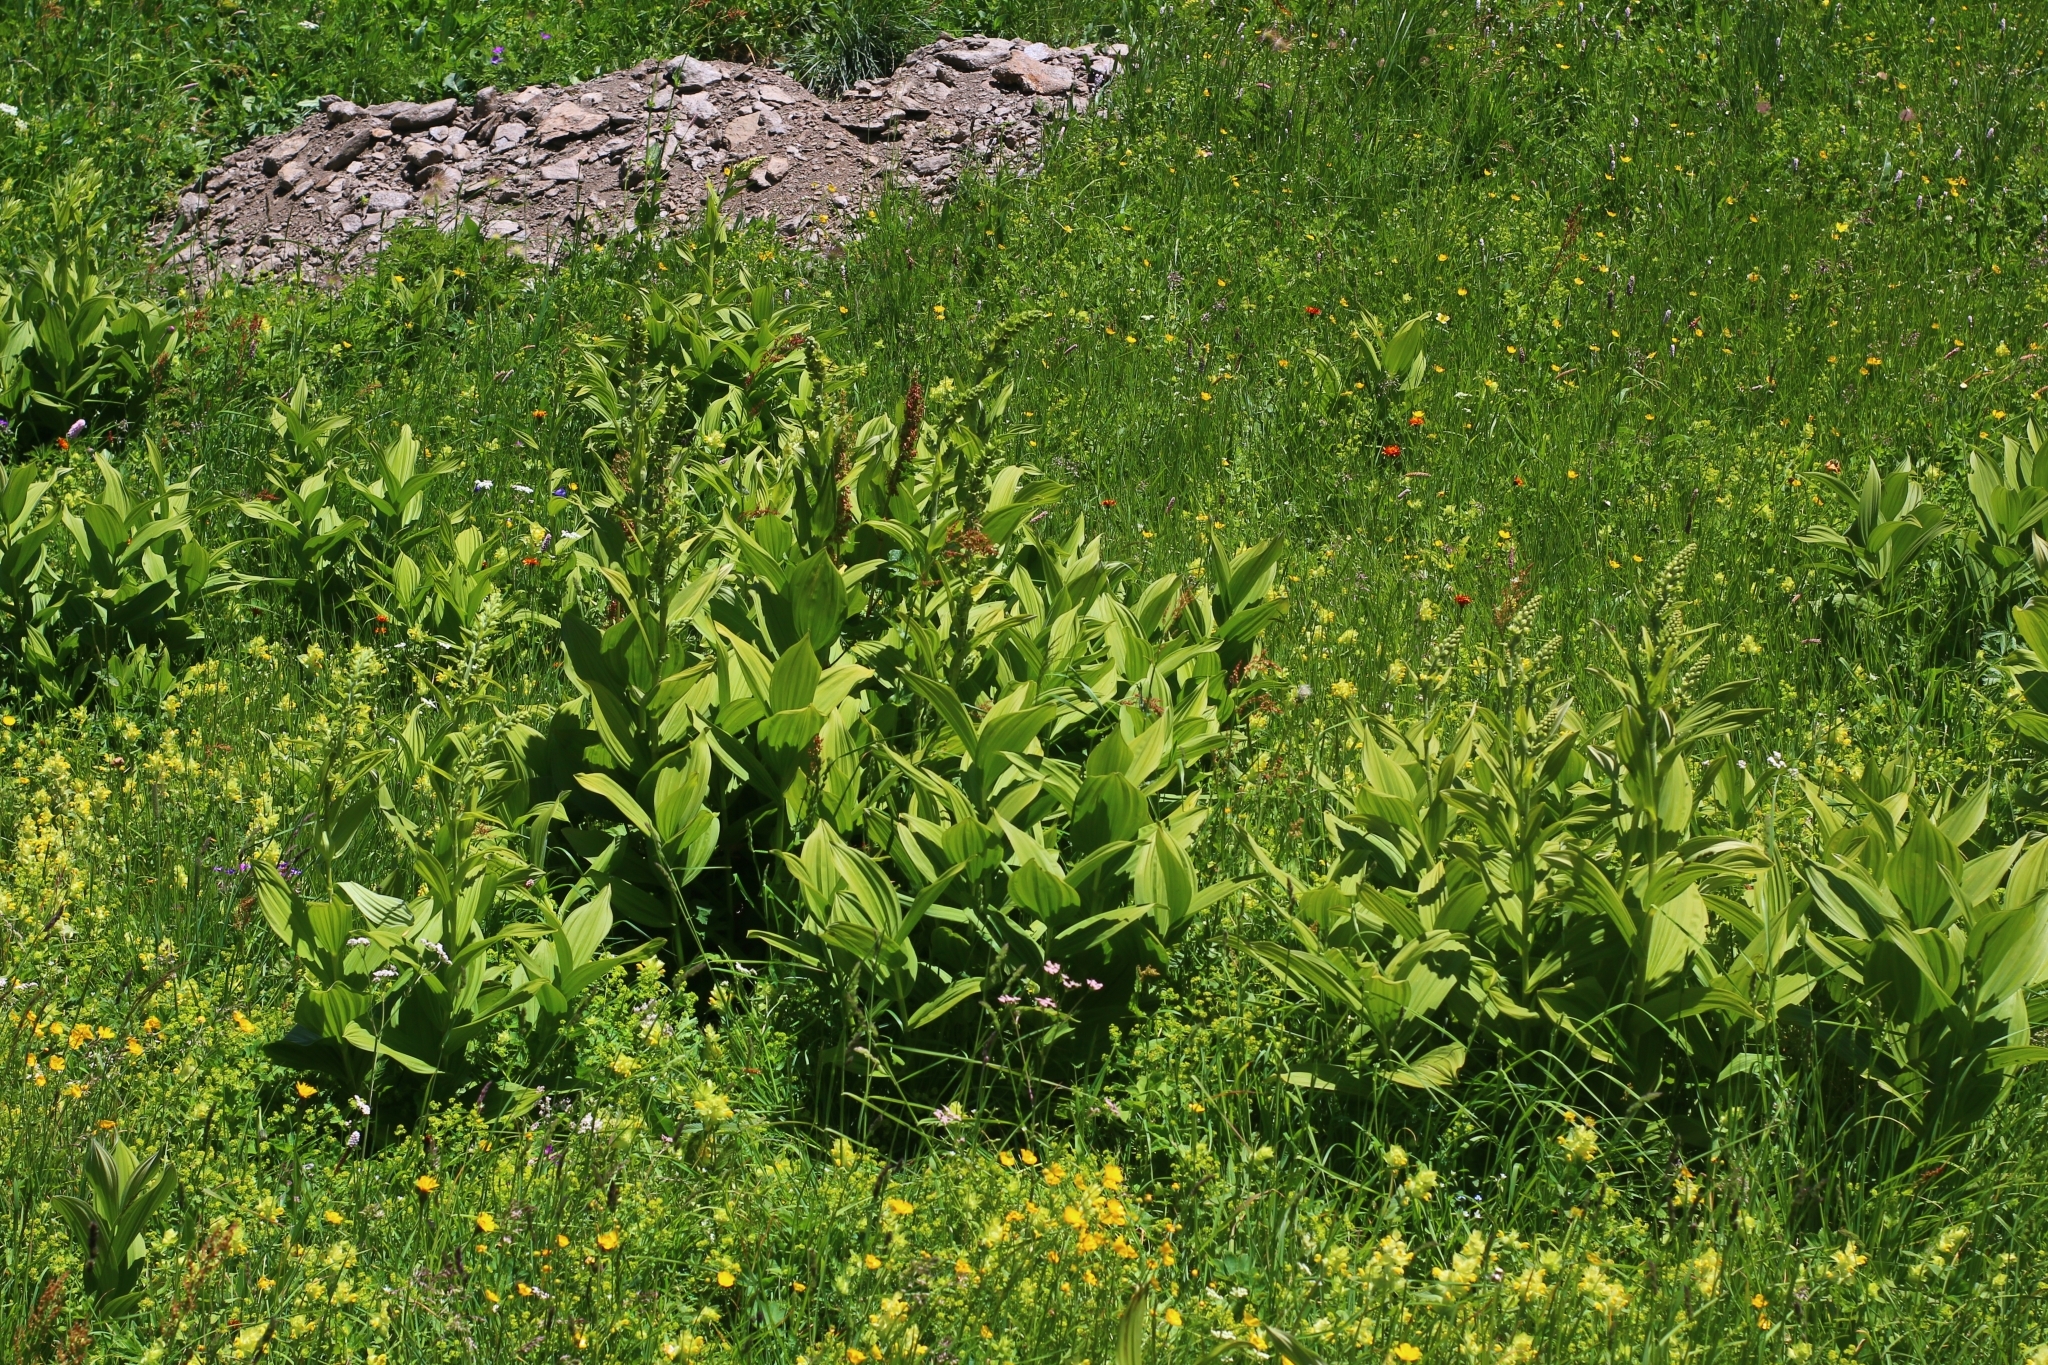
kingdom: Plantae
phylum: Tracheophyta
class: Liliopsida
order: Liliales
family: Melanthiaceae
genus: Veratrum
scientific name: Veratrum lobelianum
